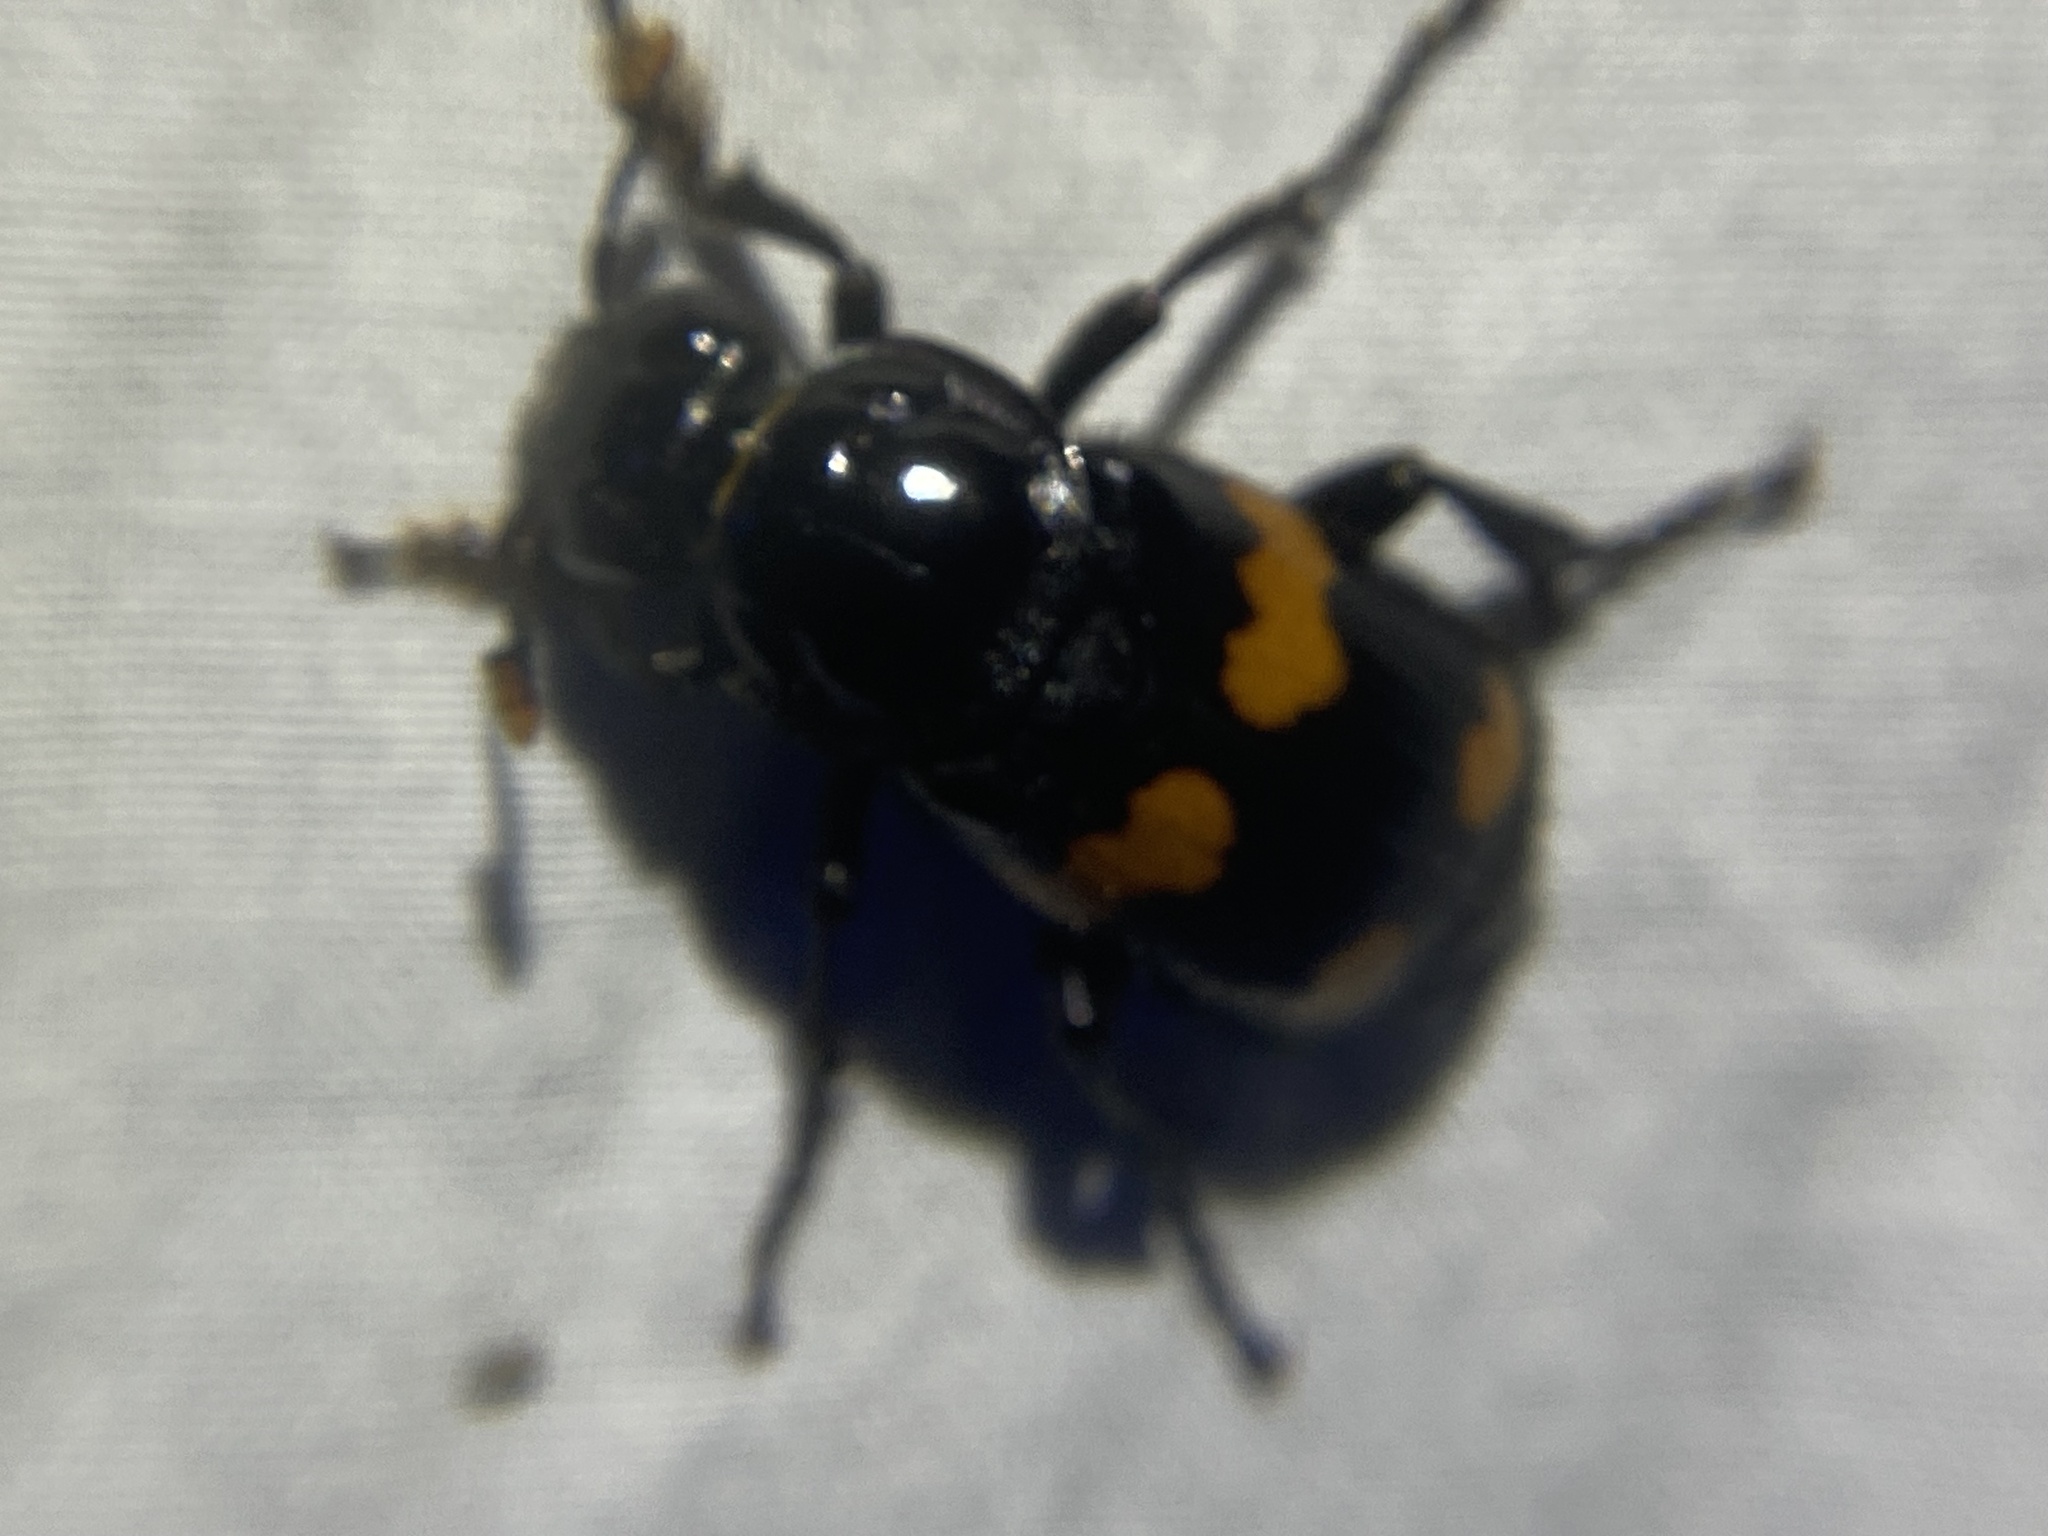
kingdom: Animalia
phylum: Arthropoda
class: Insecta
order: Coleoptera
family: Staphylinidae
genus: Nicrophorus
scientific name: Nicrophorus orbicollis
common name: Roundneck sexton beetle
